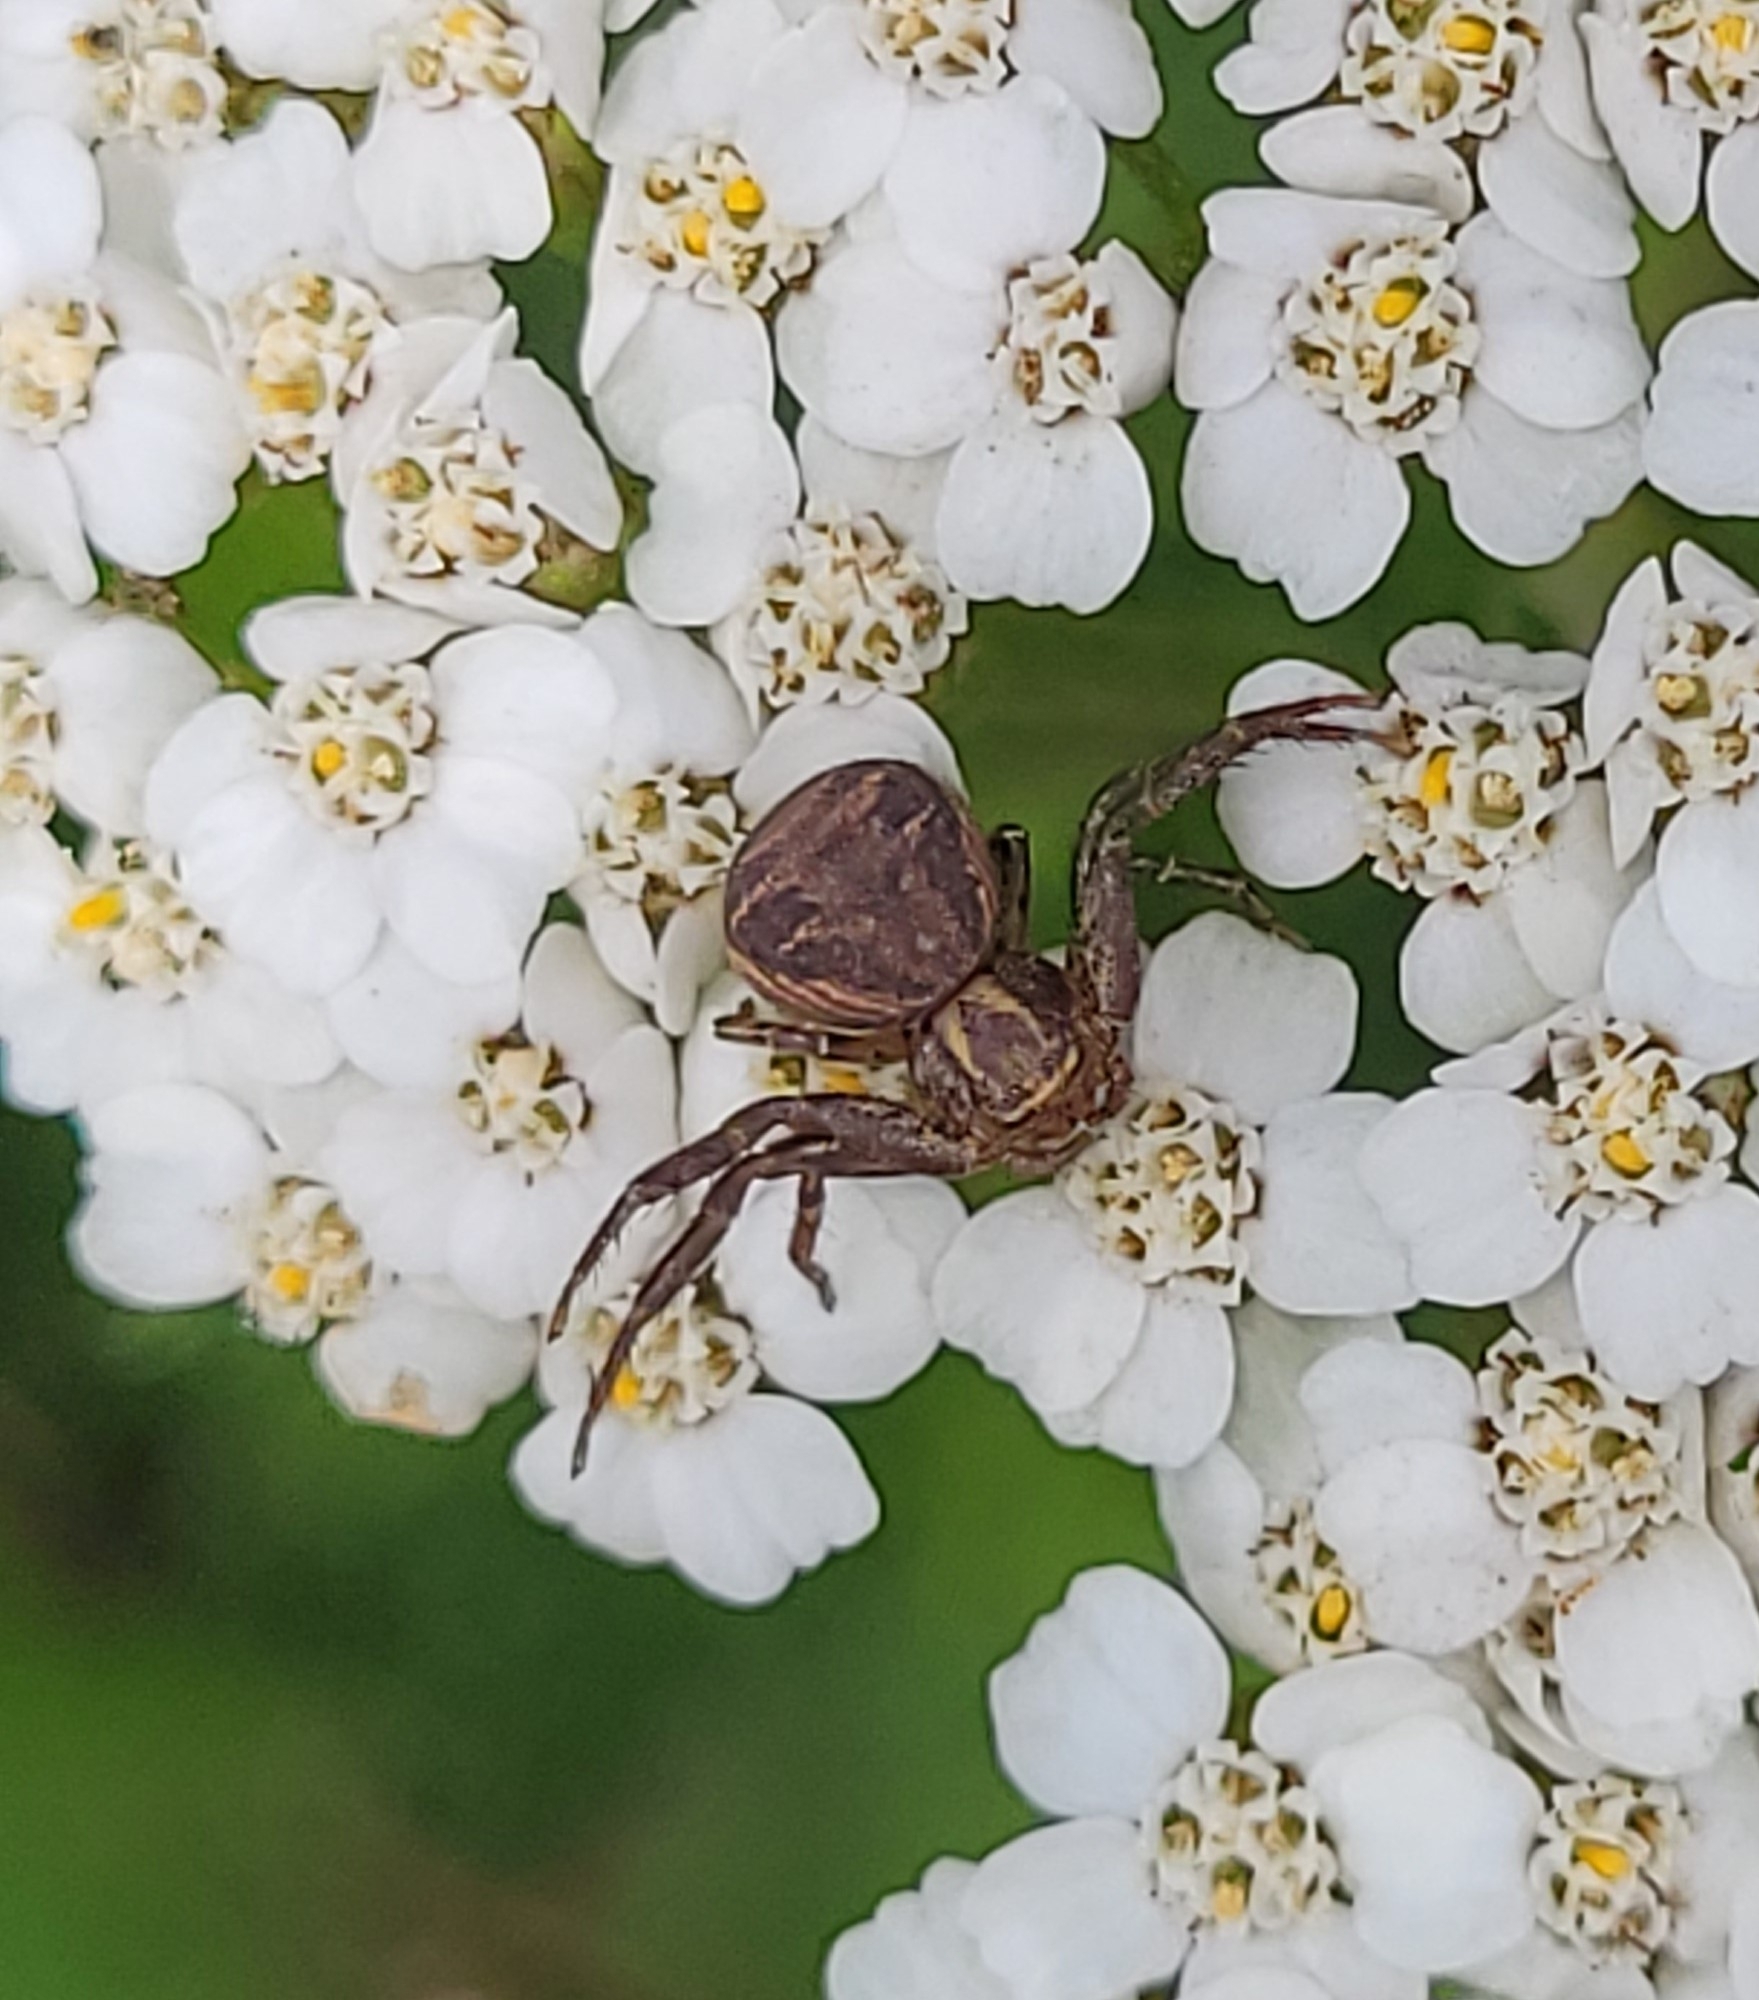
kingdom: Animalia
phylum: Arthropoda
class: Arachnida
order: Araneae
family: Thomisidae
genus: Xysticus
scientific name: Xysticus
